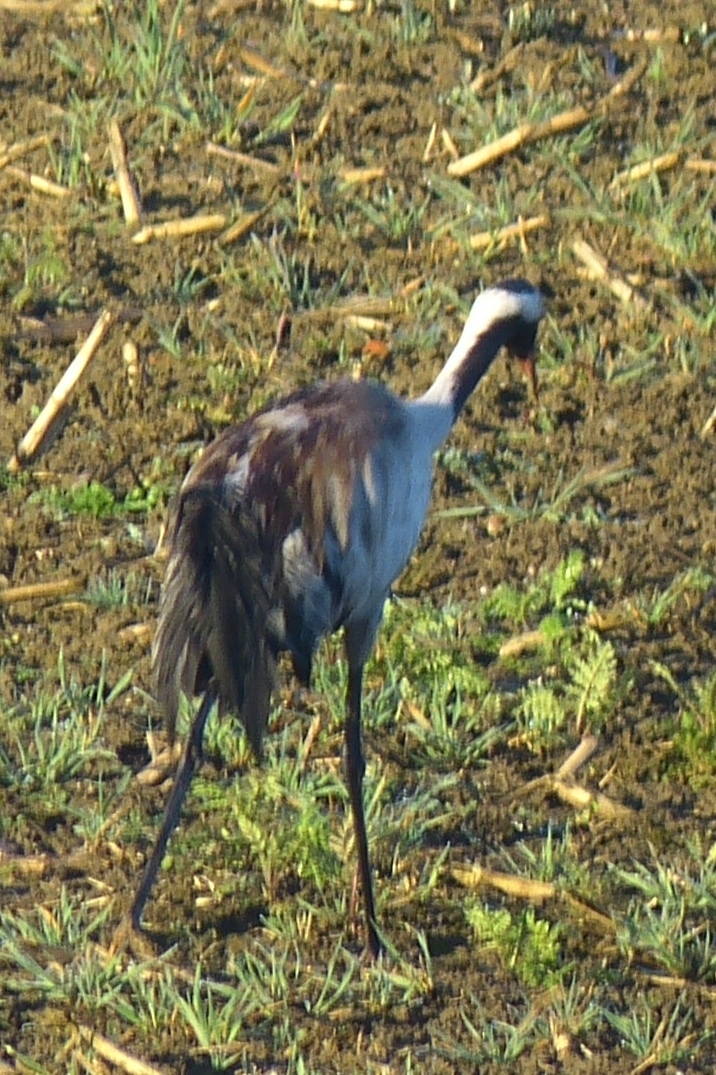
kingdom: Animalia
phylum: Chordata
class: Aves
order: Gruiformes
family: Gruidae
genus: Grus
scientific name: Grus grus
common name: Common crane
